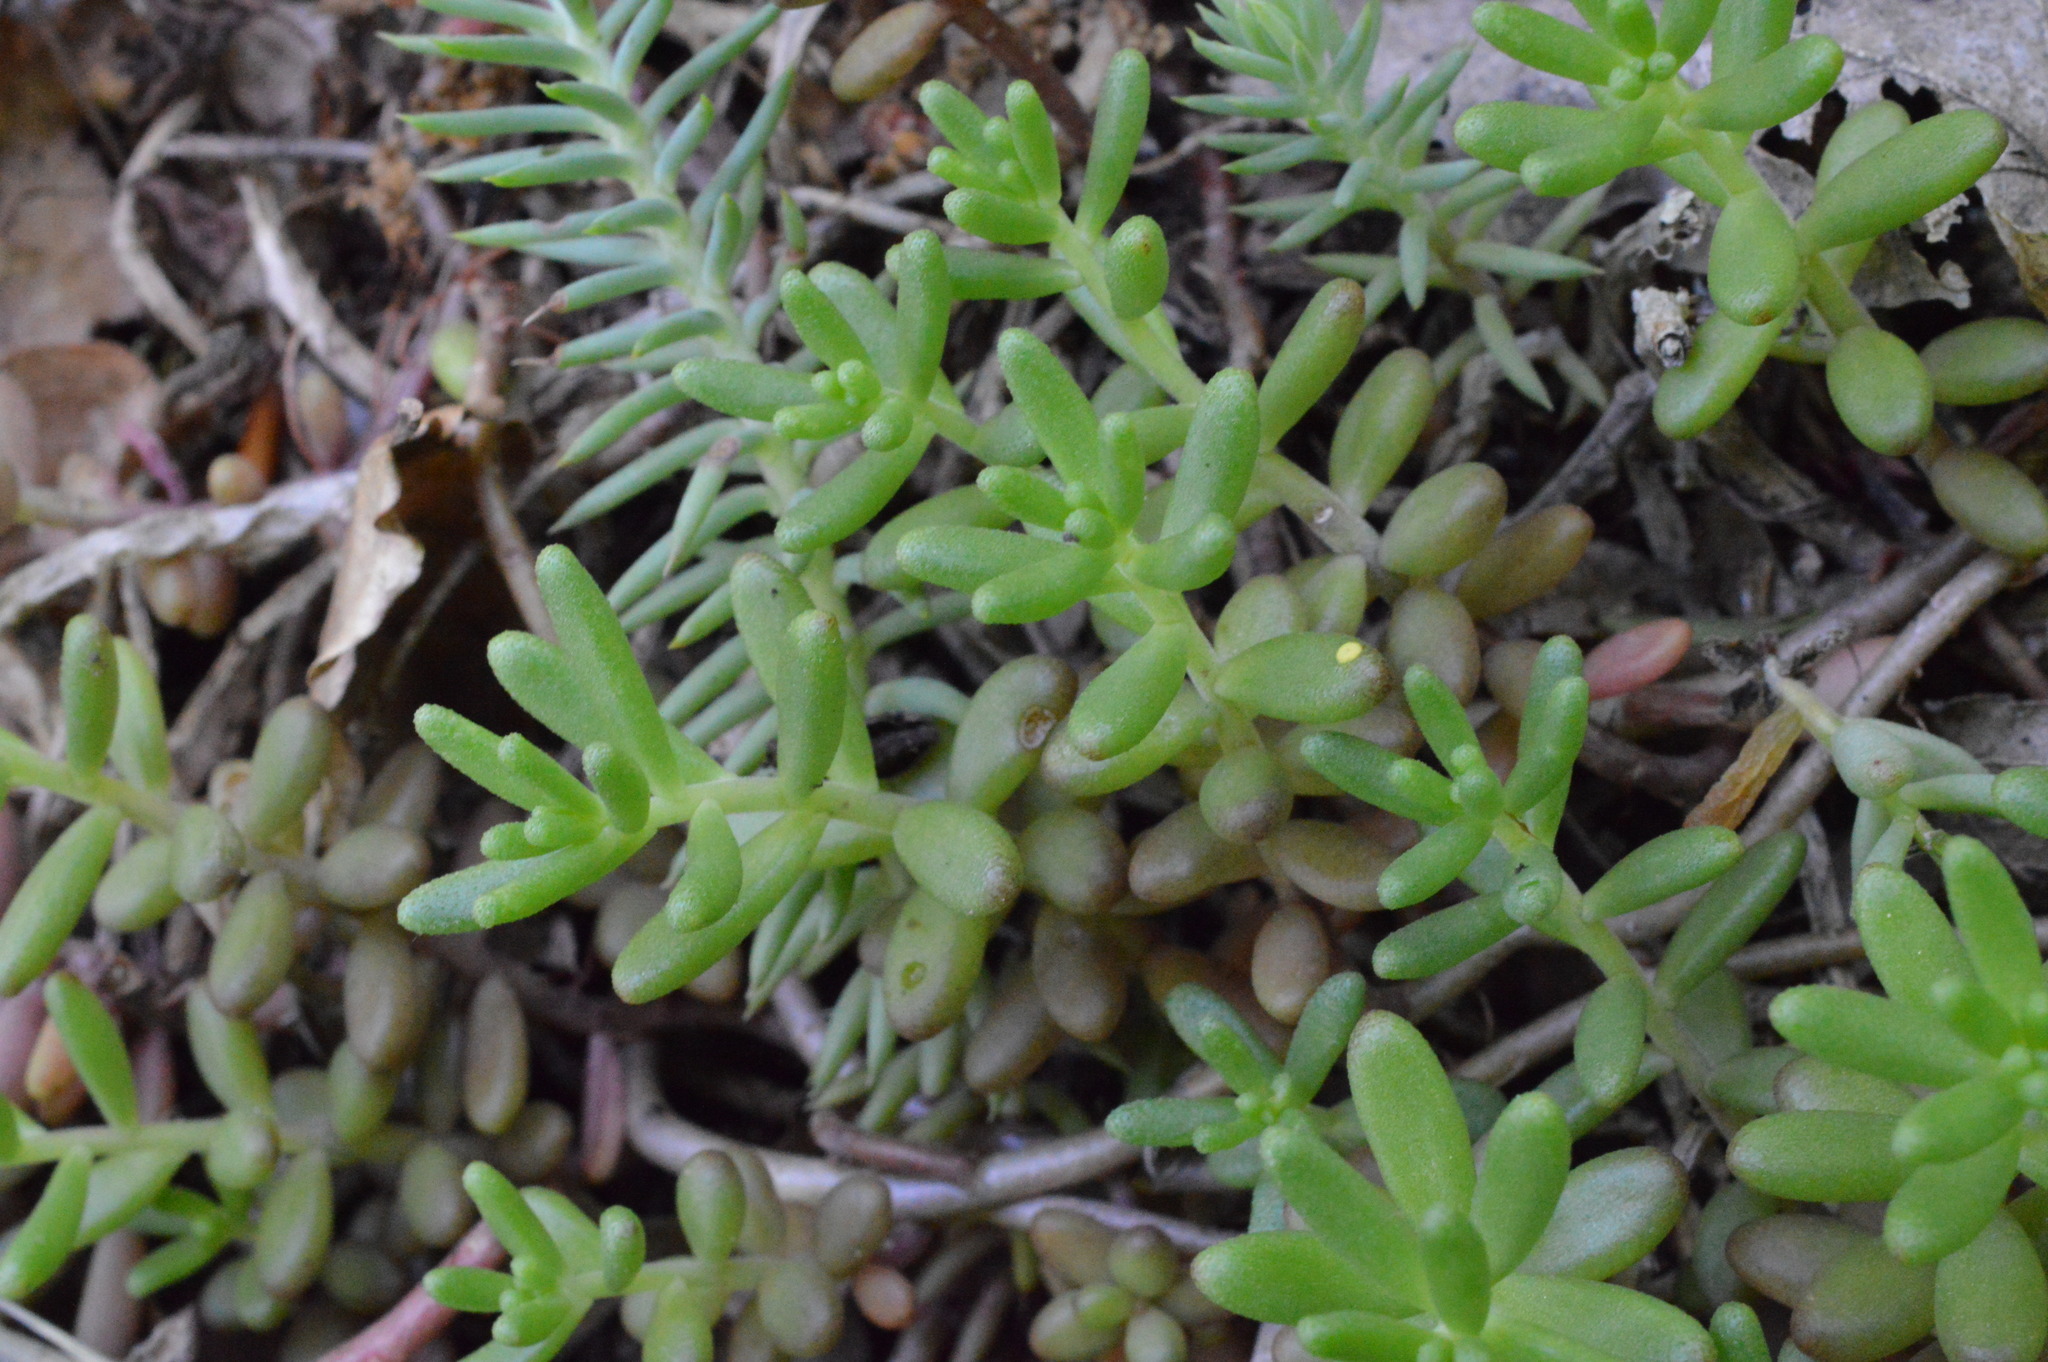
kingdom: Plantae
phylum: Tracheophyta
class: Magnoliopsida
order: Saxifragales
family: Crassulaceae
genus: Sedum
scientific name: Sedum album
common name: White stonecrop
